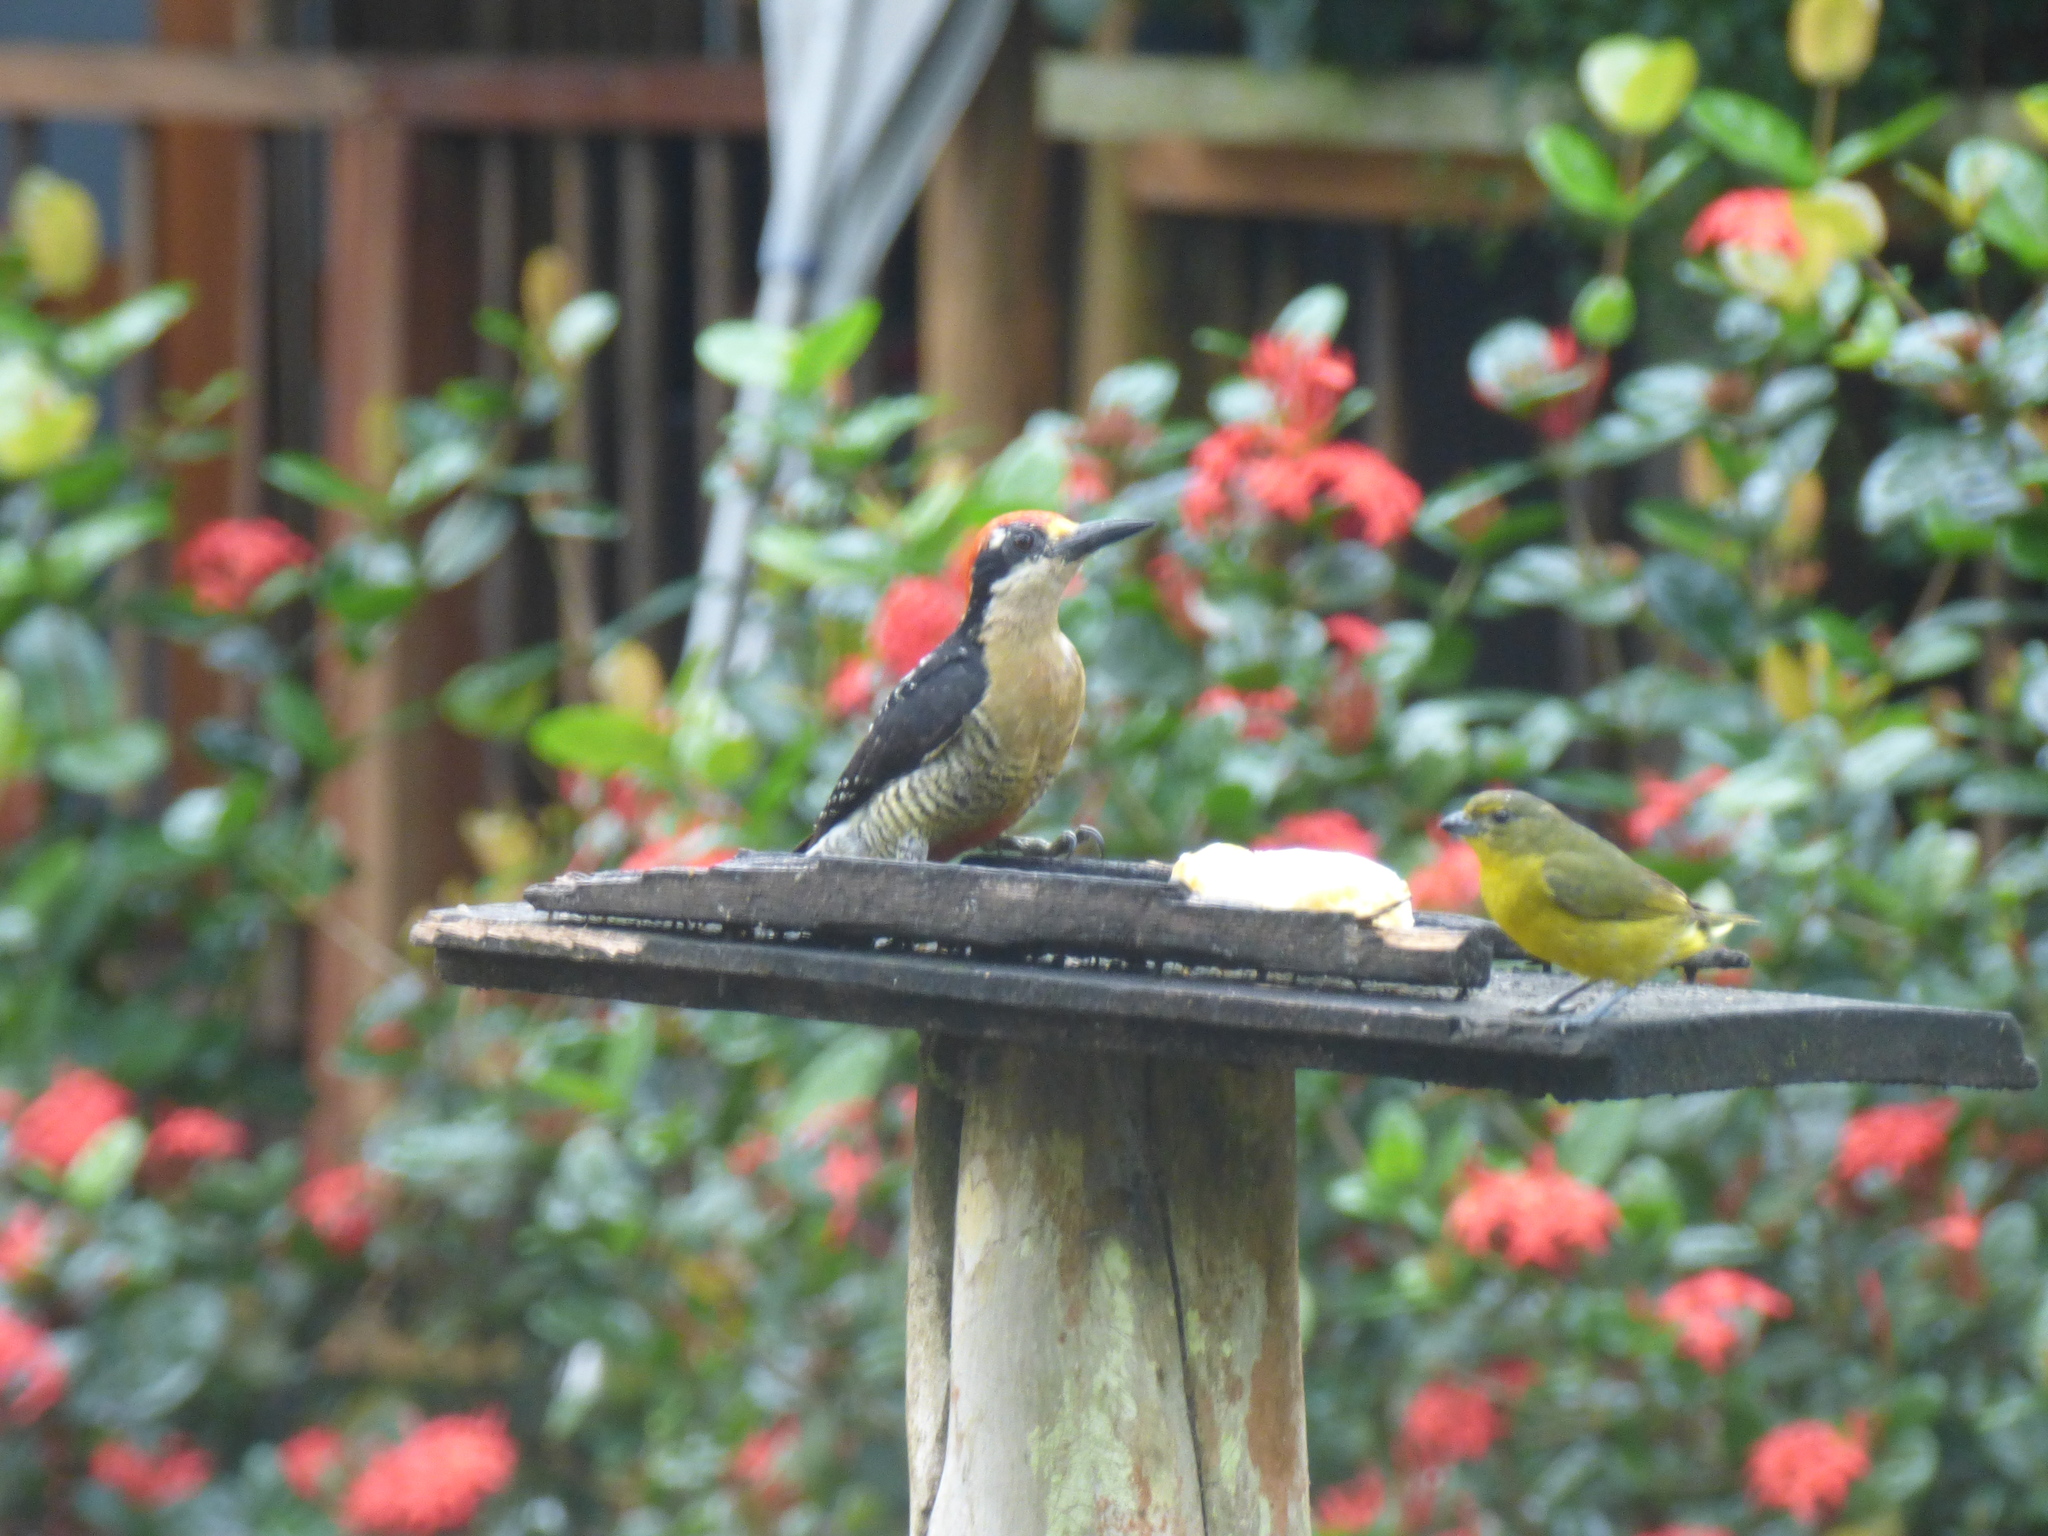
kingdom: Animalia
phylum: Chordata
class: Aves
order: Piciformes
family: Picidae
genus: Melanerpes
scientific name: Melanerpes pucherani
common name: Black-cheeked woodpecker
